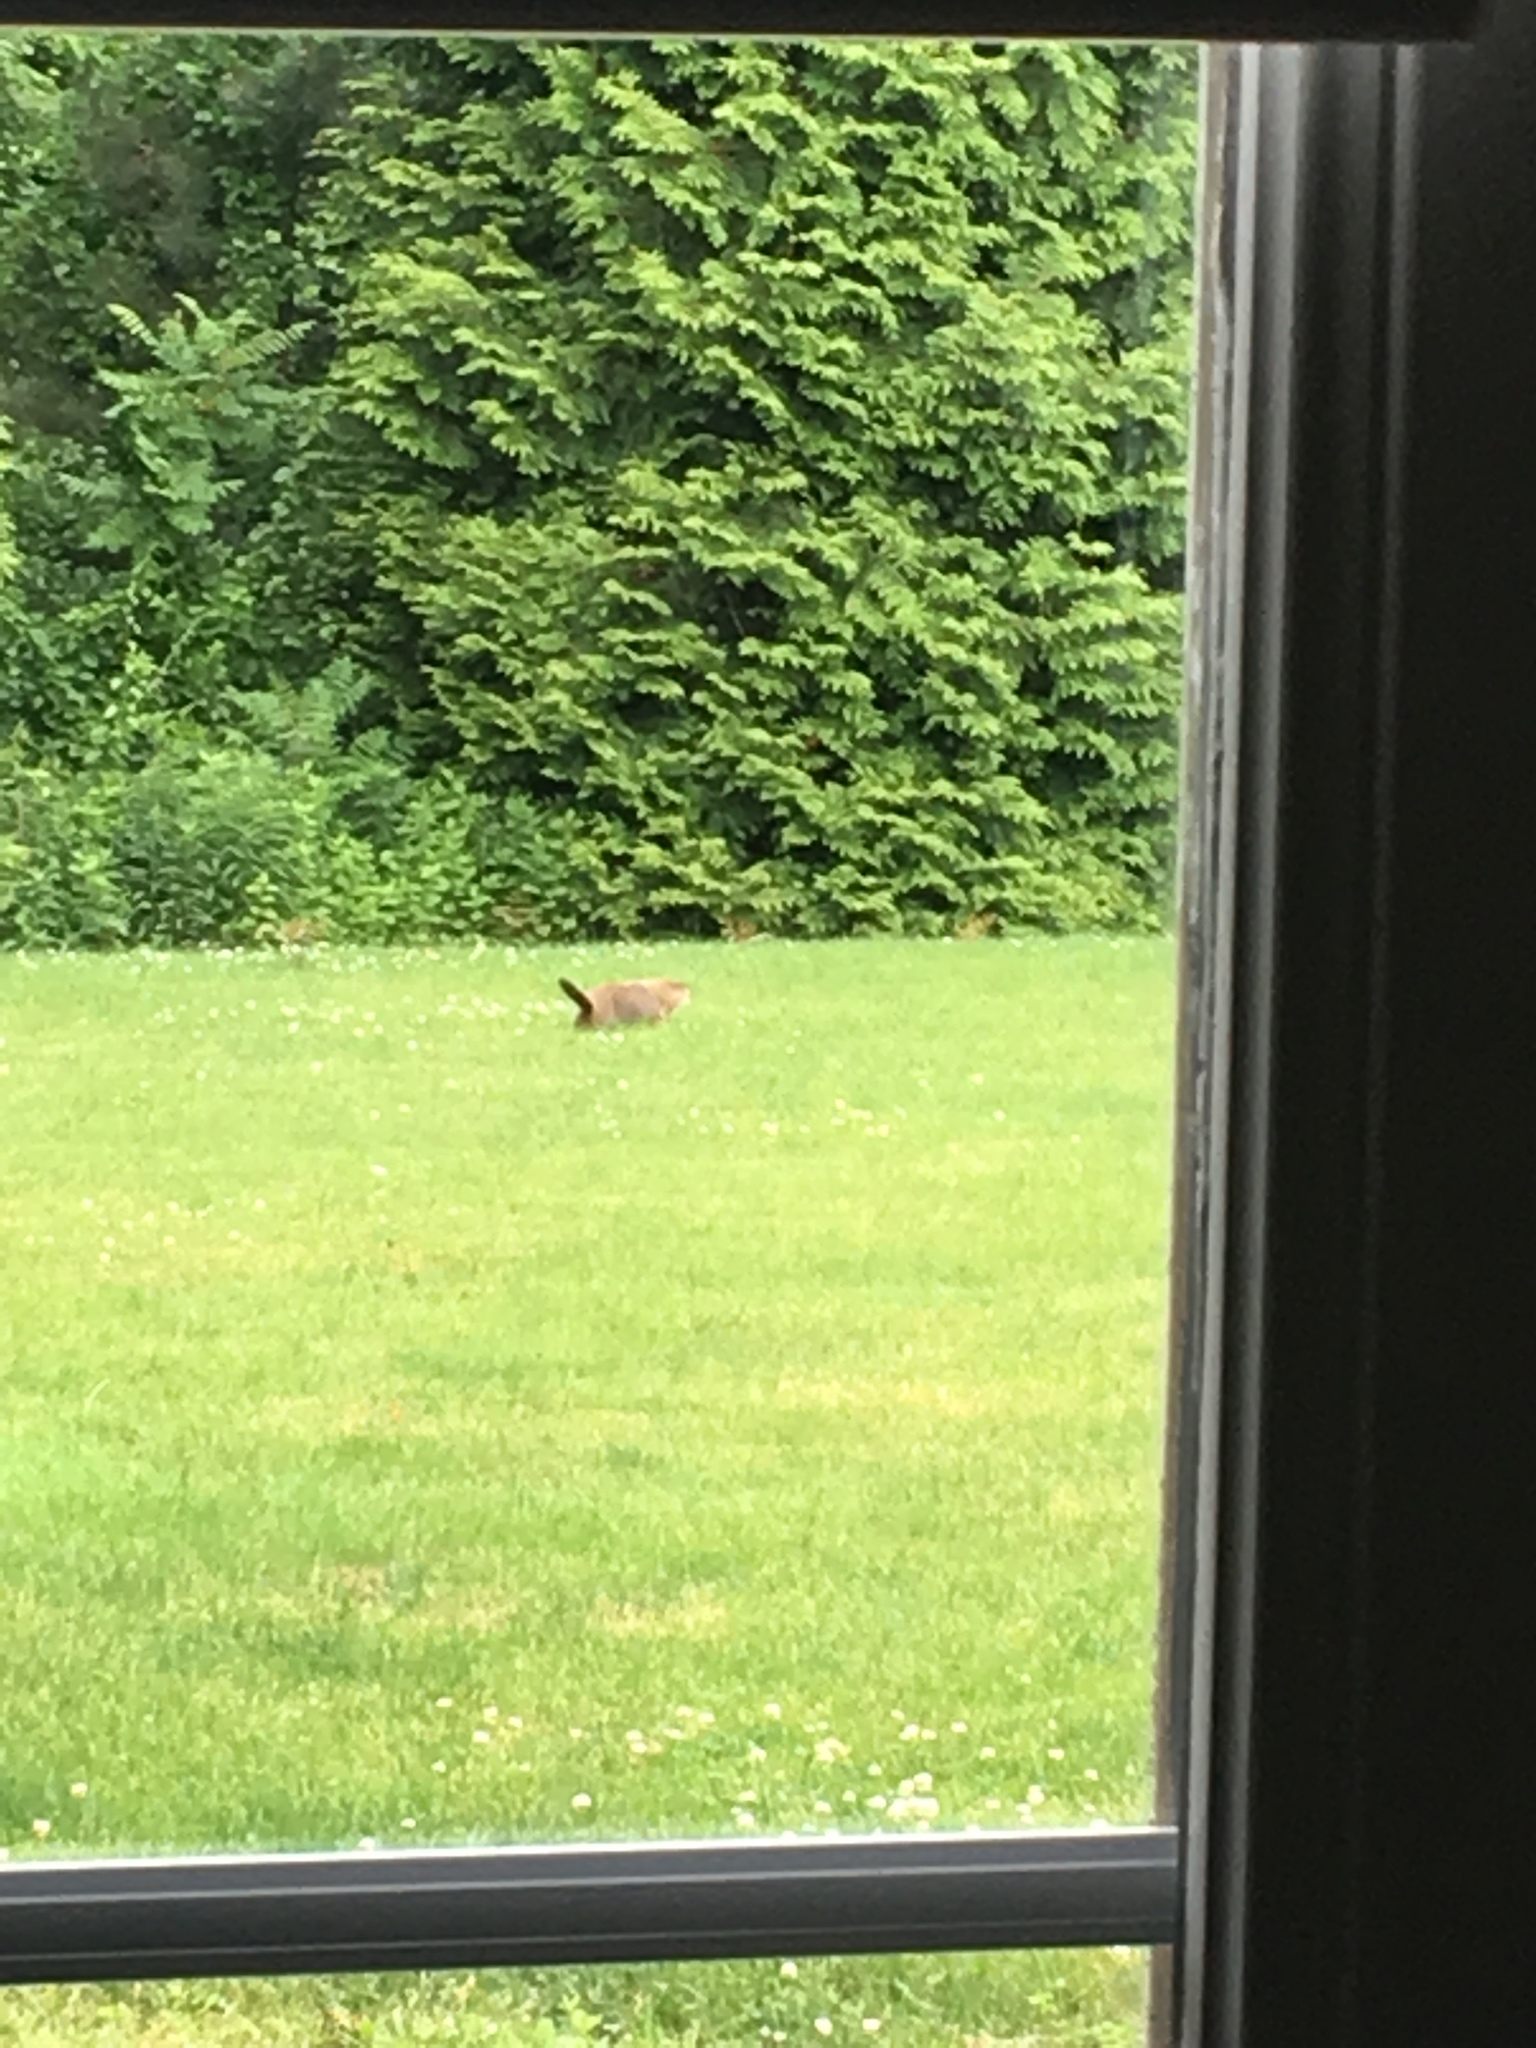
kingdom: Animalia
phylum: Chordata
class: Mammalia
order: Rodentia
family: Sciuridae
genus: Marmota
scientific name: Marmota monax
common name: Groundhog
